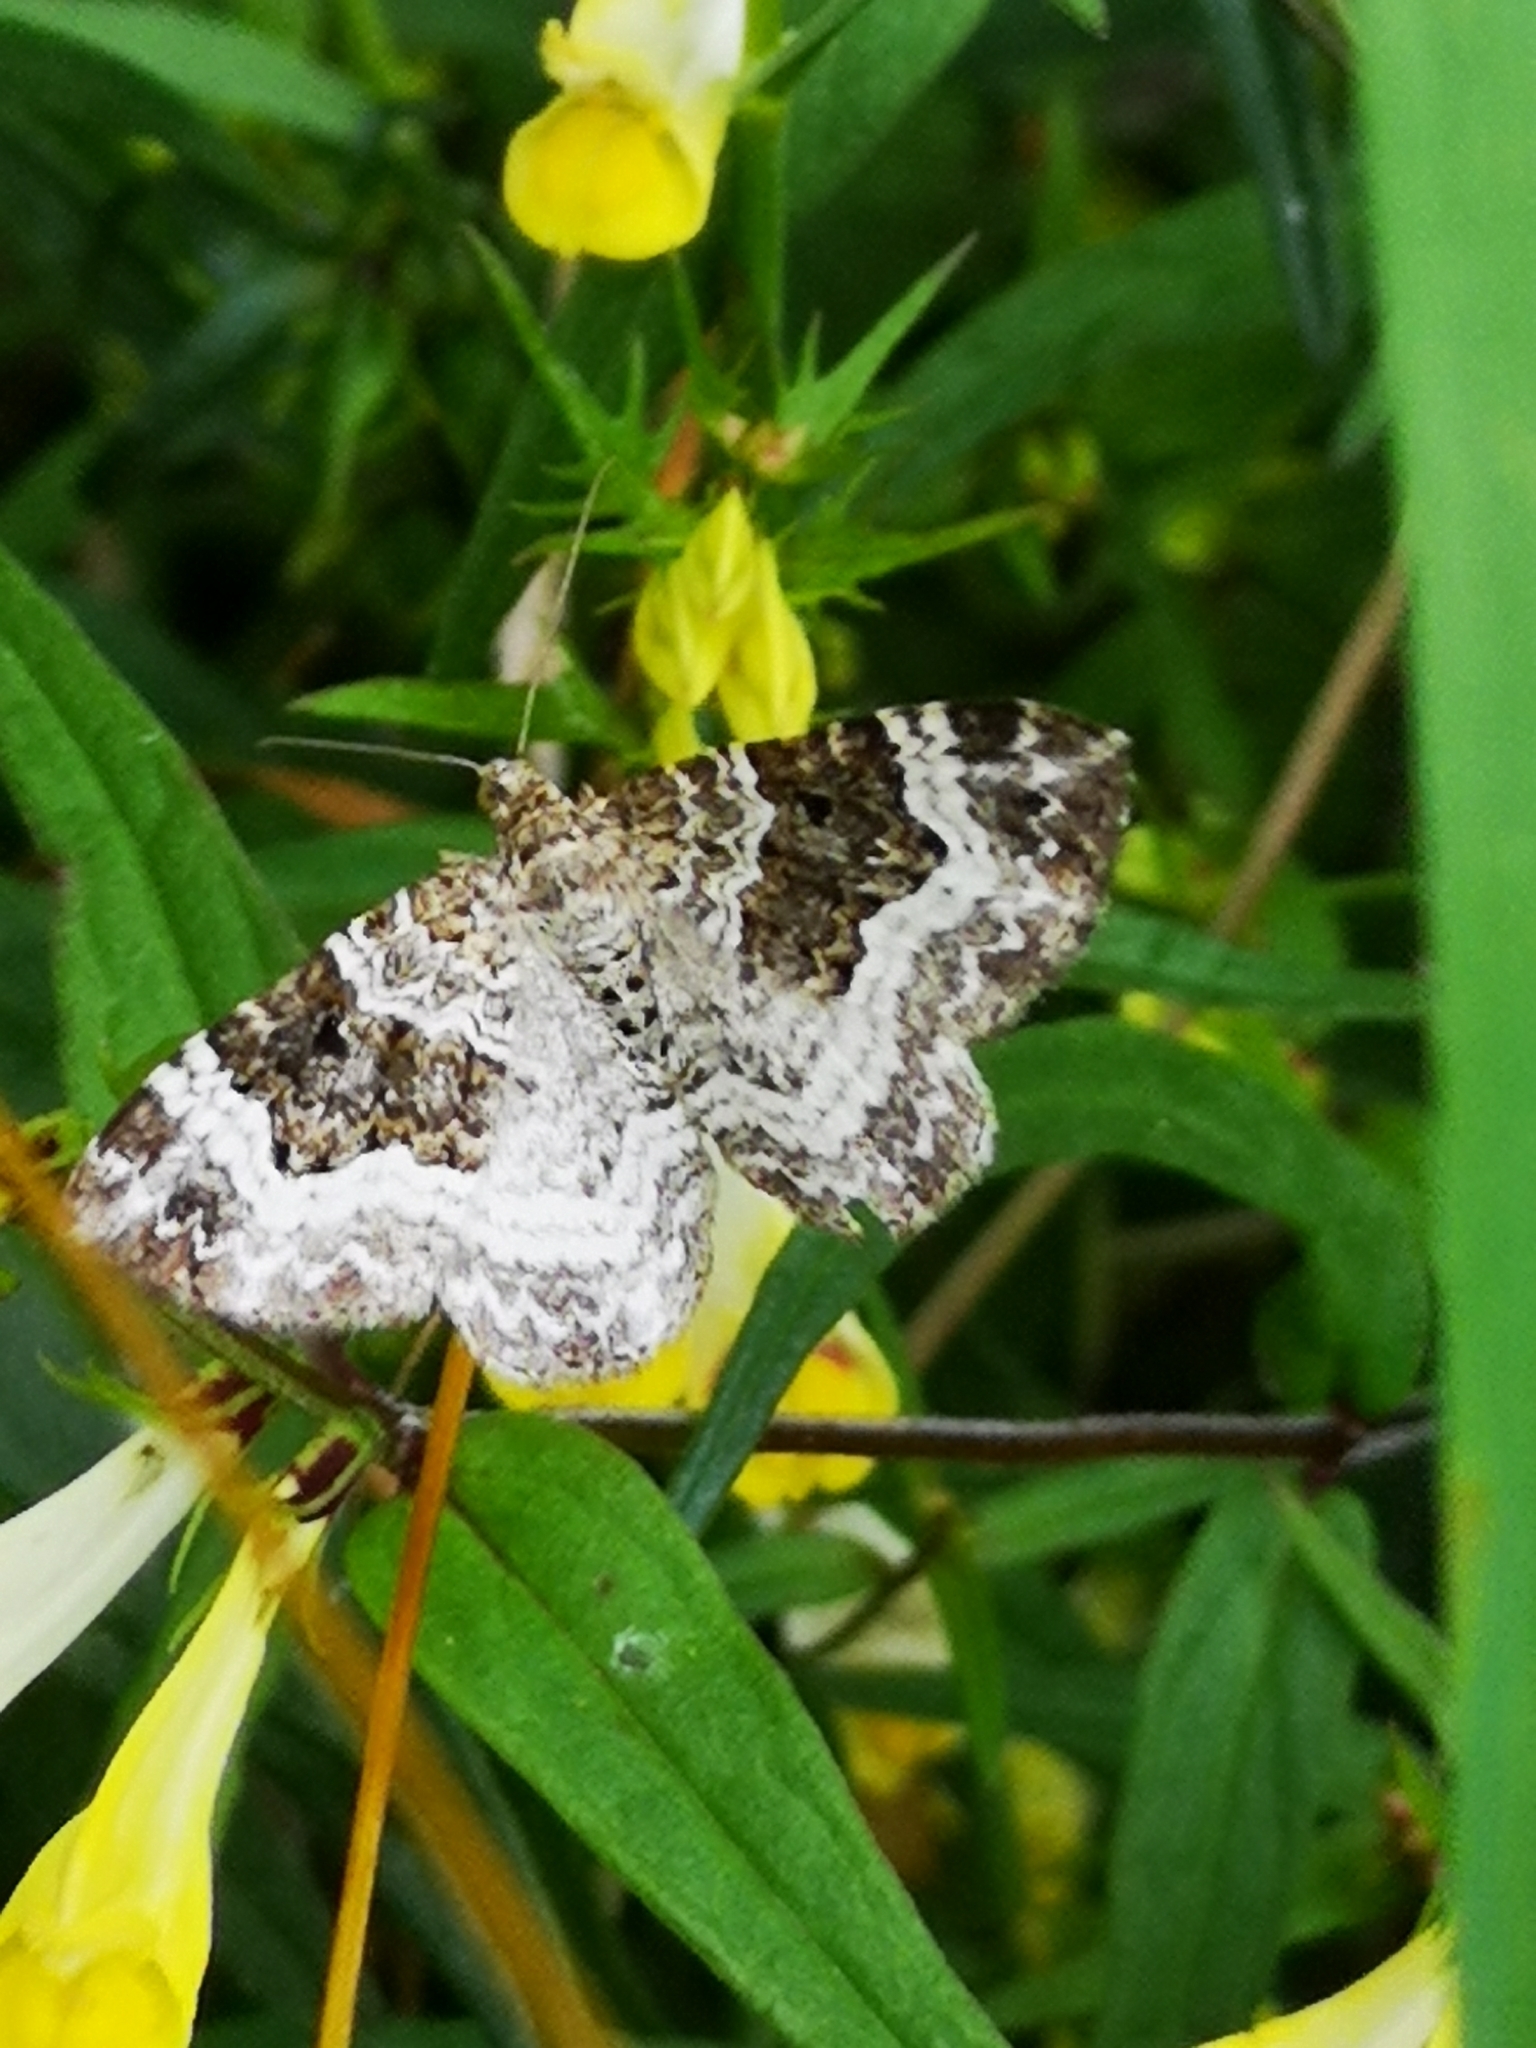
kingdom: Animalia
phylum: Arthropoda
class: Insecta
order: Lepidoptera
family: Geometridae
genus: Epirrhoe
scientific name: Epirrhoe alternata
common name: Common carpet
